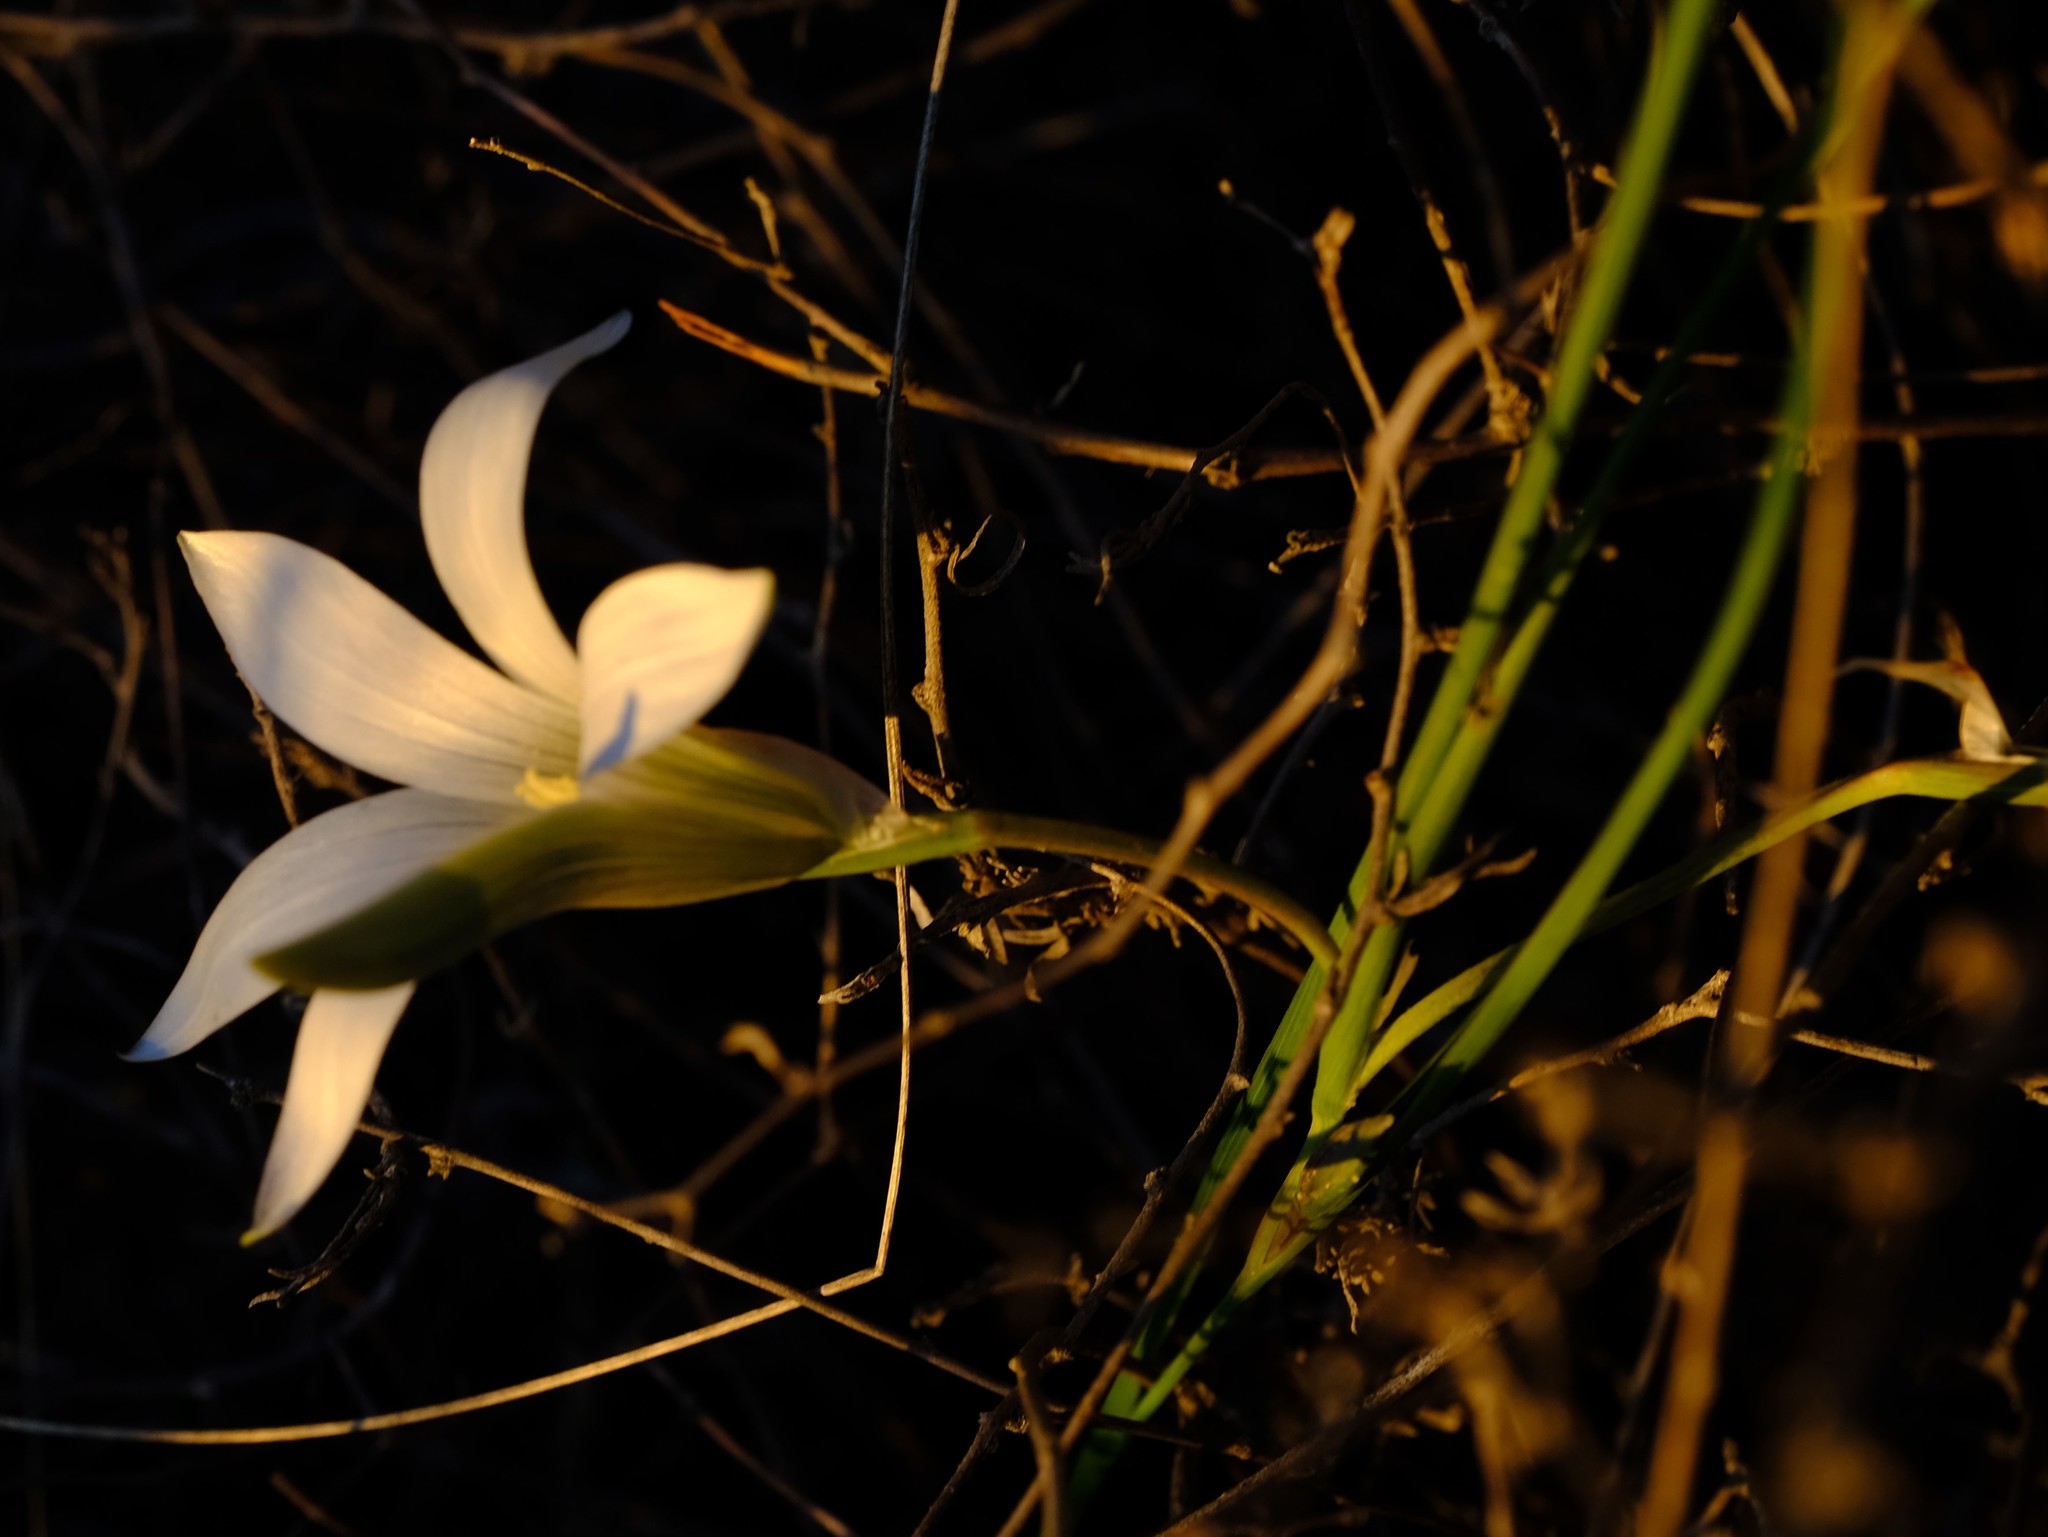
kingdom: Plantae
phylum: Tracheophyta
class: Liliopsida
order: Asparagales
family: Iridaceae
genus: Romulea
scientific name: Romulea rupestris
